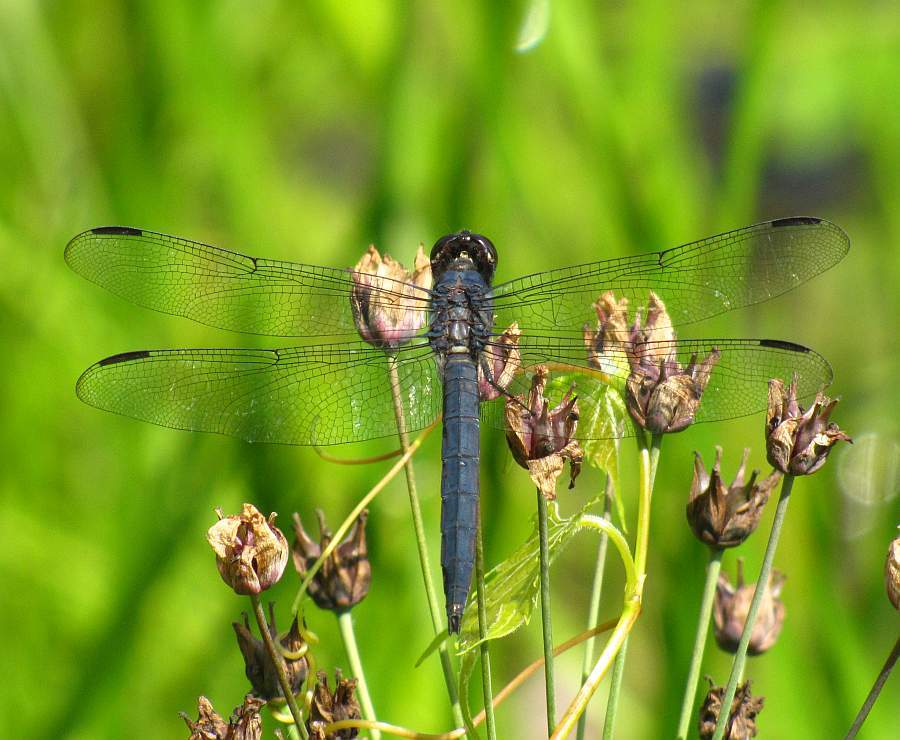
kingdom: Animalia
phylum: Arthropoda
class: Insecta
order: Odonata
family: Libellulidae
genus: Libellula
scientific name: Libellula incesta
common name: Slaty skimmer
